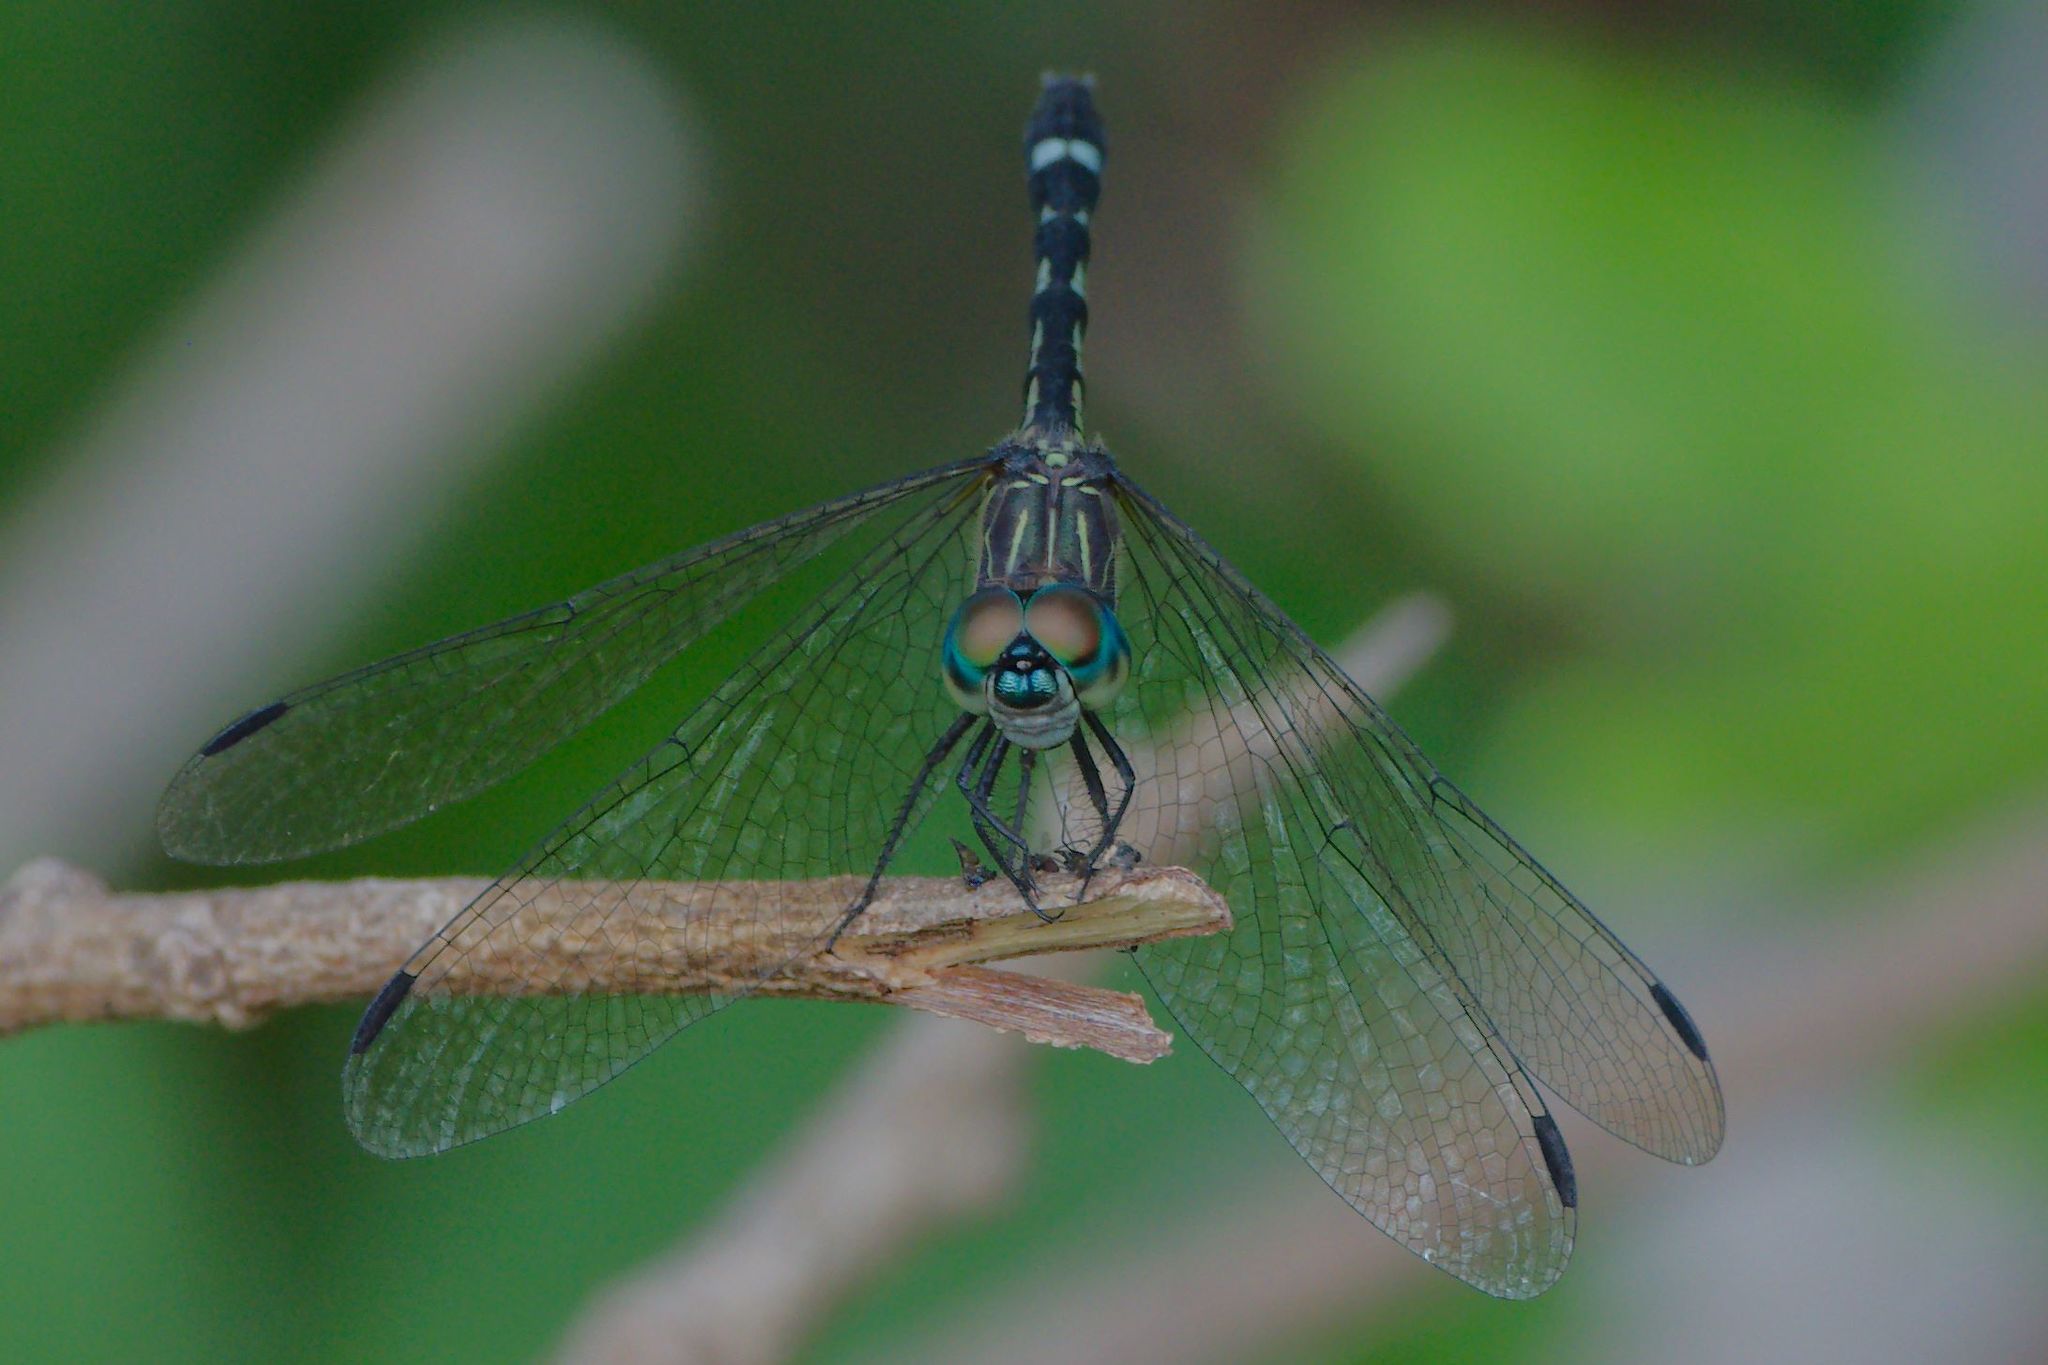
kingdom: Animalia
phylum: Arthropoda
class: Insecta
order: Odonata
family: Libellulidae
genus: Micrathyria
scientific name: Micrathyria didyma
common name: Three-striped dasher
